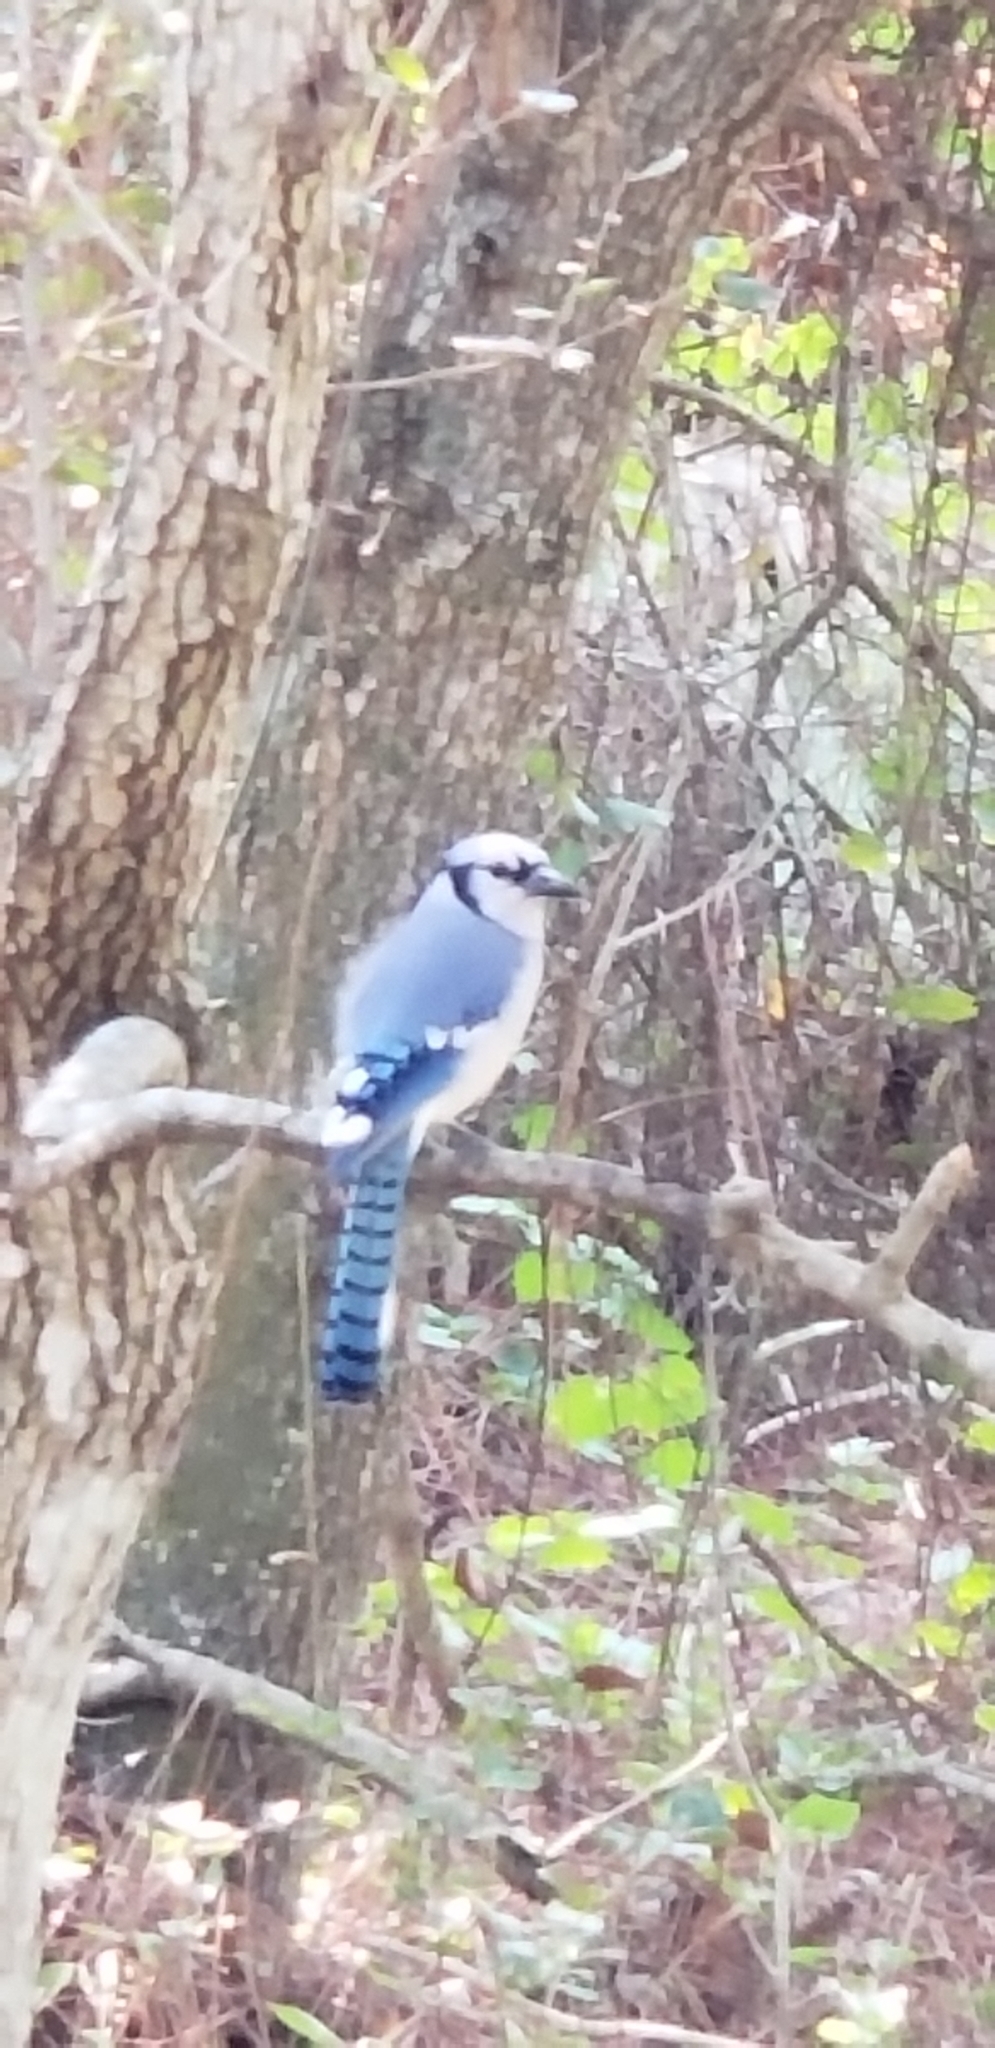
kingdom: Animalia
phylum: Chordata
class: Aves
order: Passeriformes
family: Corvidae
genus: Cyanocitta
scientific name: Cyanocitta cristata
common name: Blue jay
